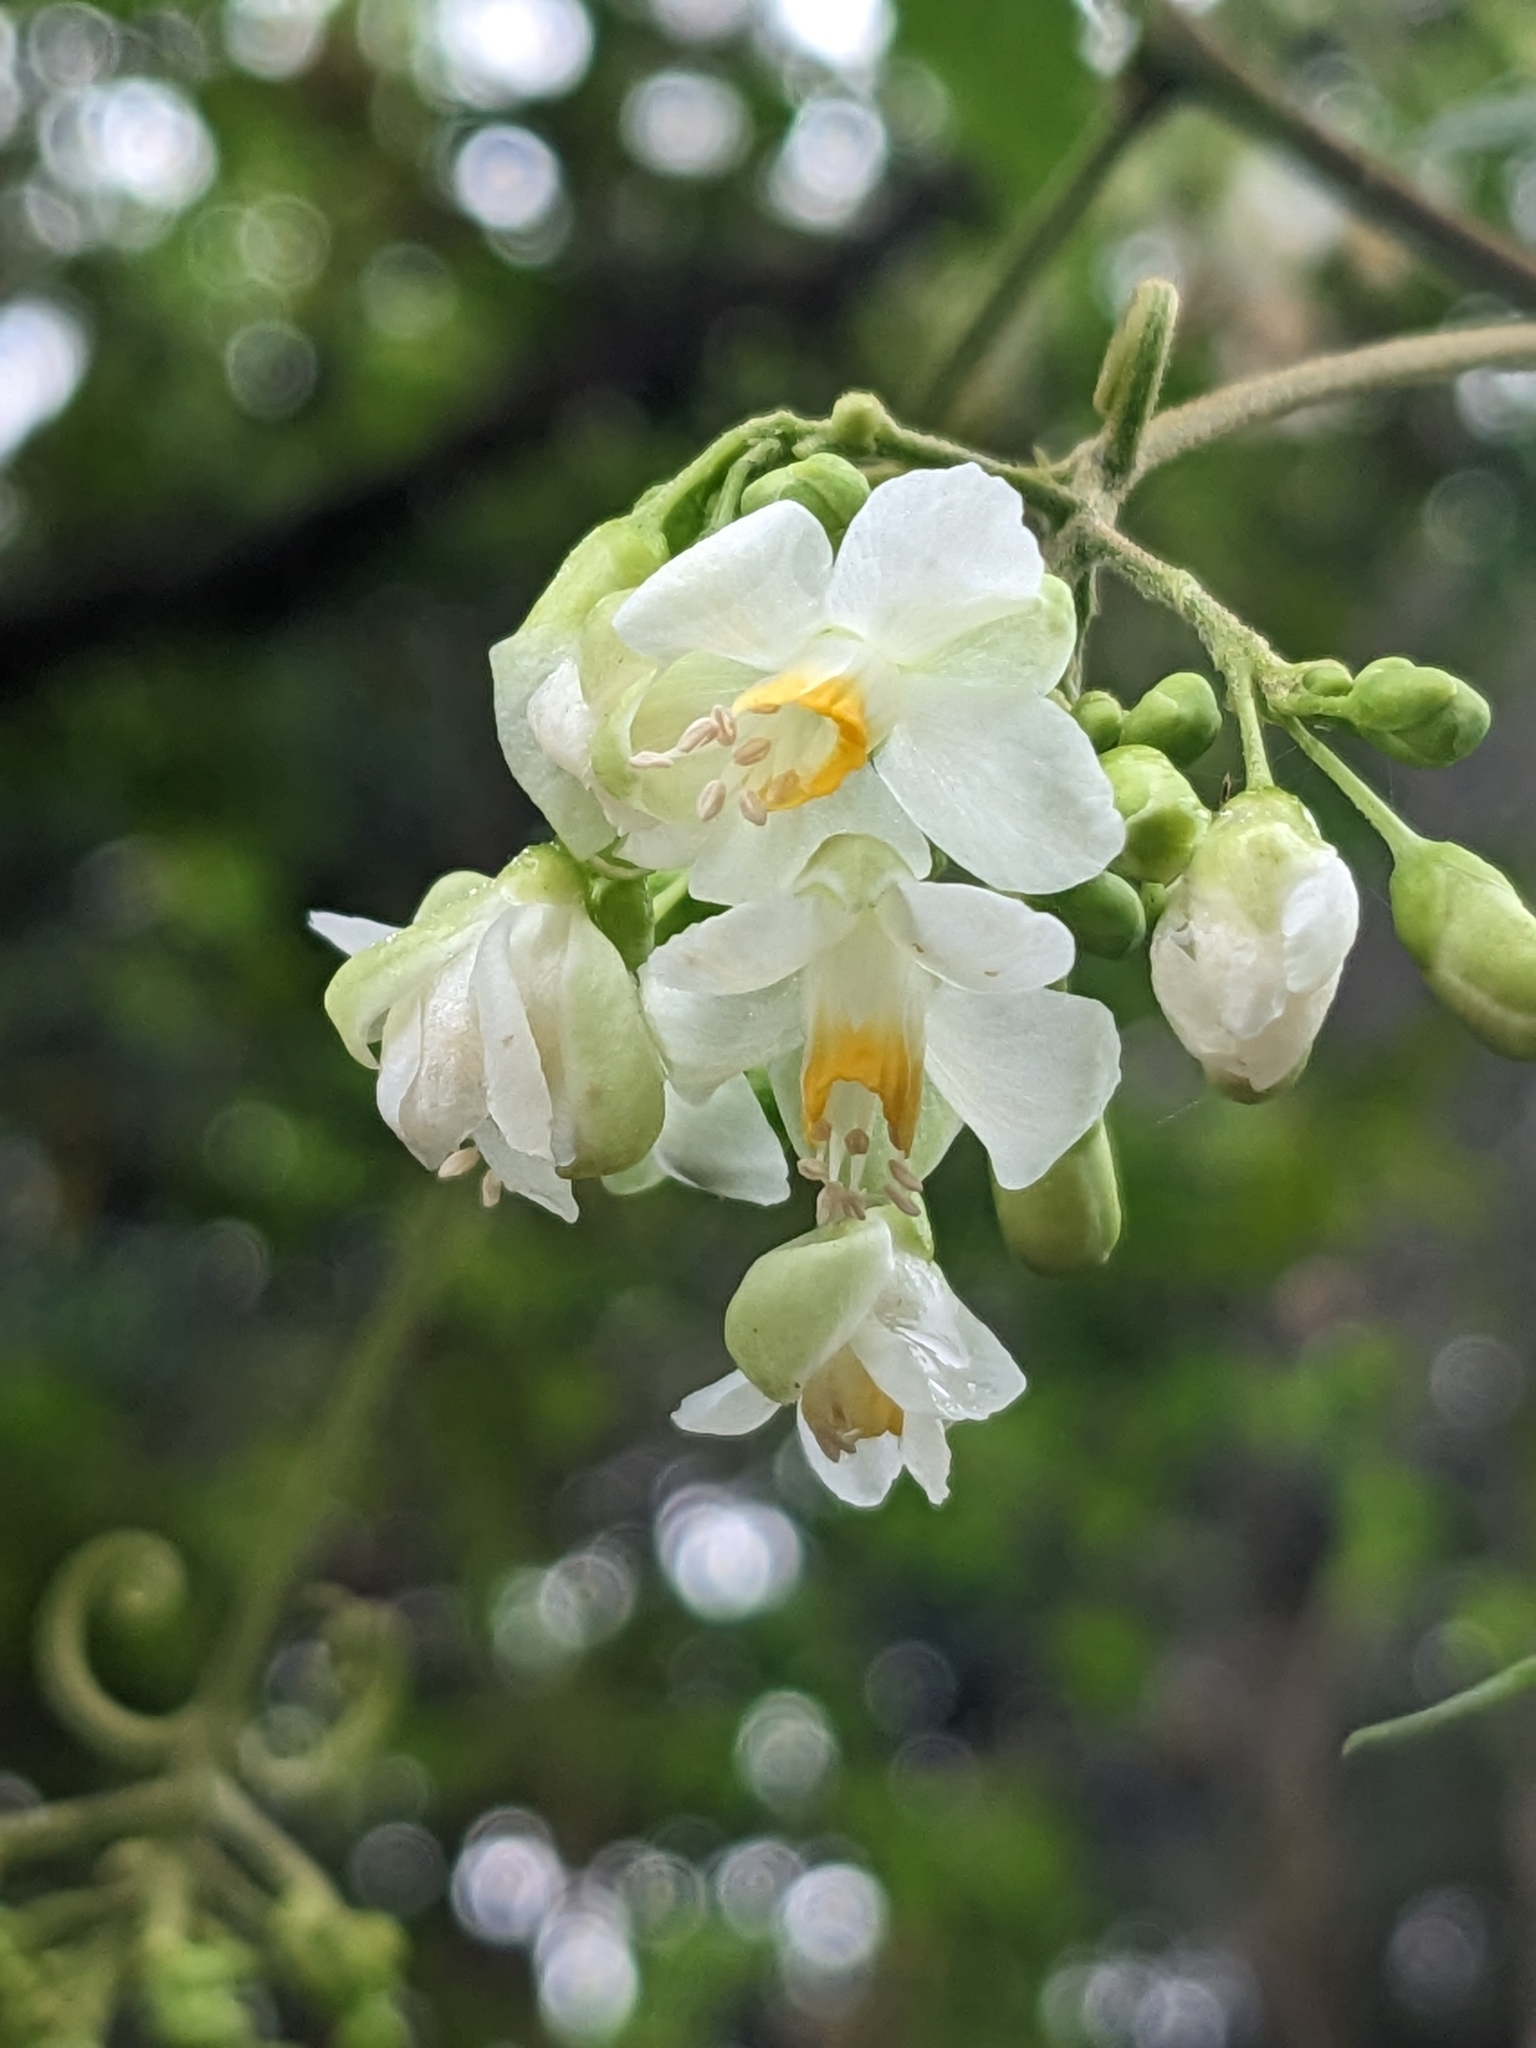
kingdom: Plantae
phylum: Tracheophyta
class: Magnoliopsida
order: Sapindales
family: Sapindaceae
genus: Cardiospermum
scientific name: Cardiospermum grandiflorum
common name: Balloon vine
